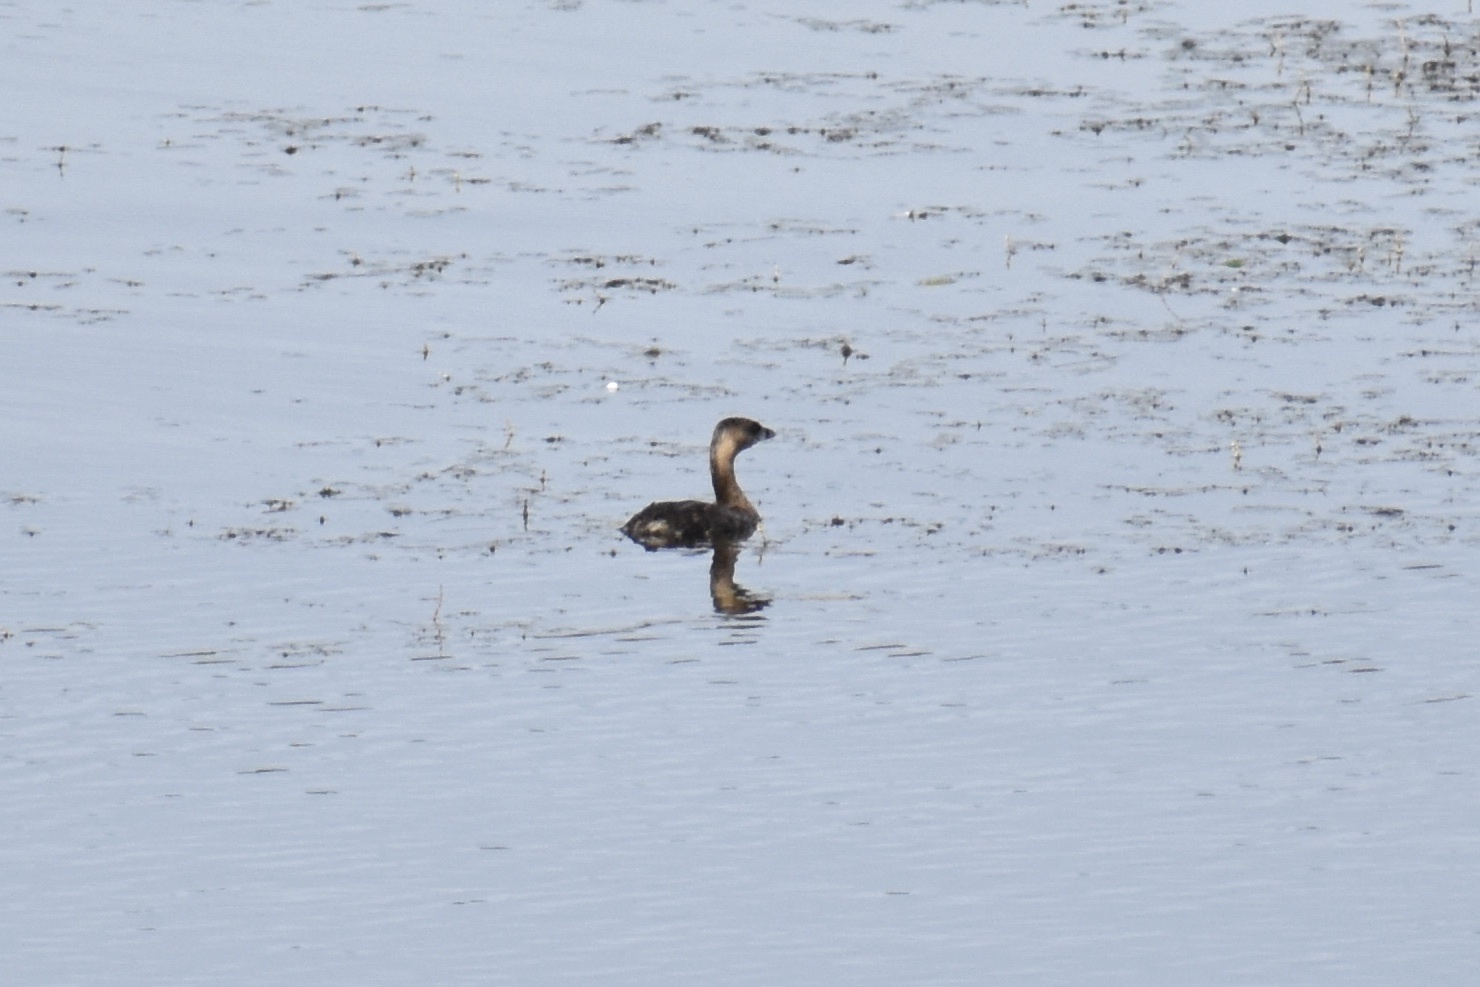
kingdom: Animalia
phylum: Chordata
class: Aves
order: Podicipediformes
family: Podicipedidae
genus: Podilymbus
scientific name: Podilymbus podiceps
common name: Pied-billed grebe
